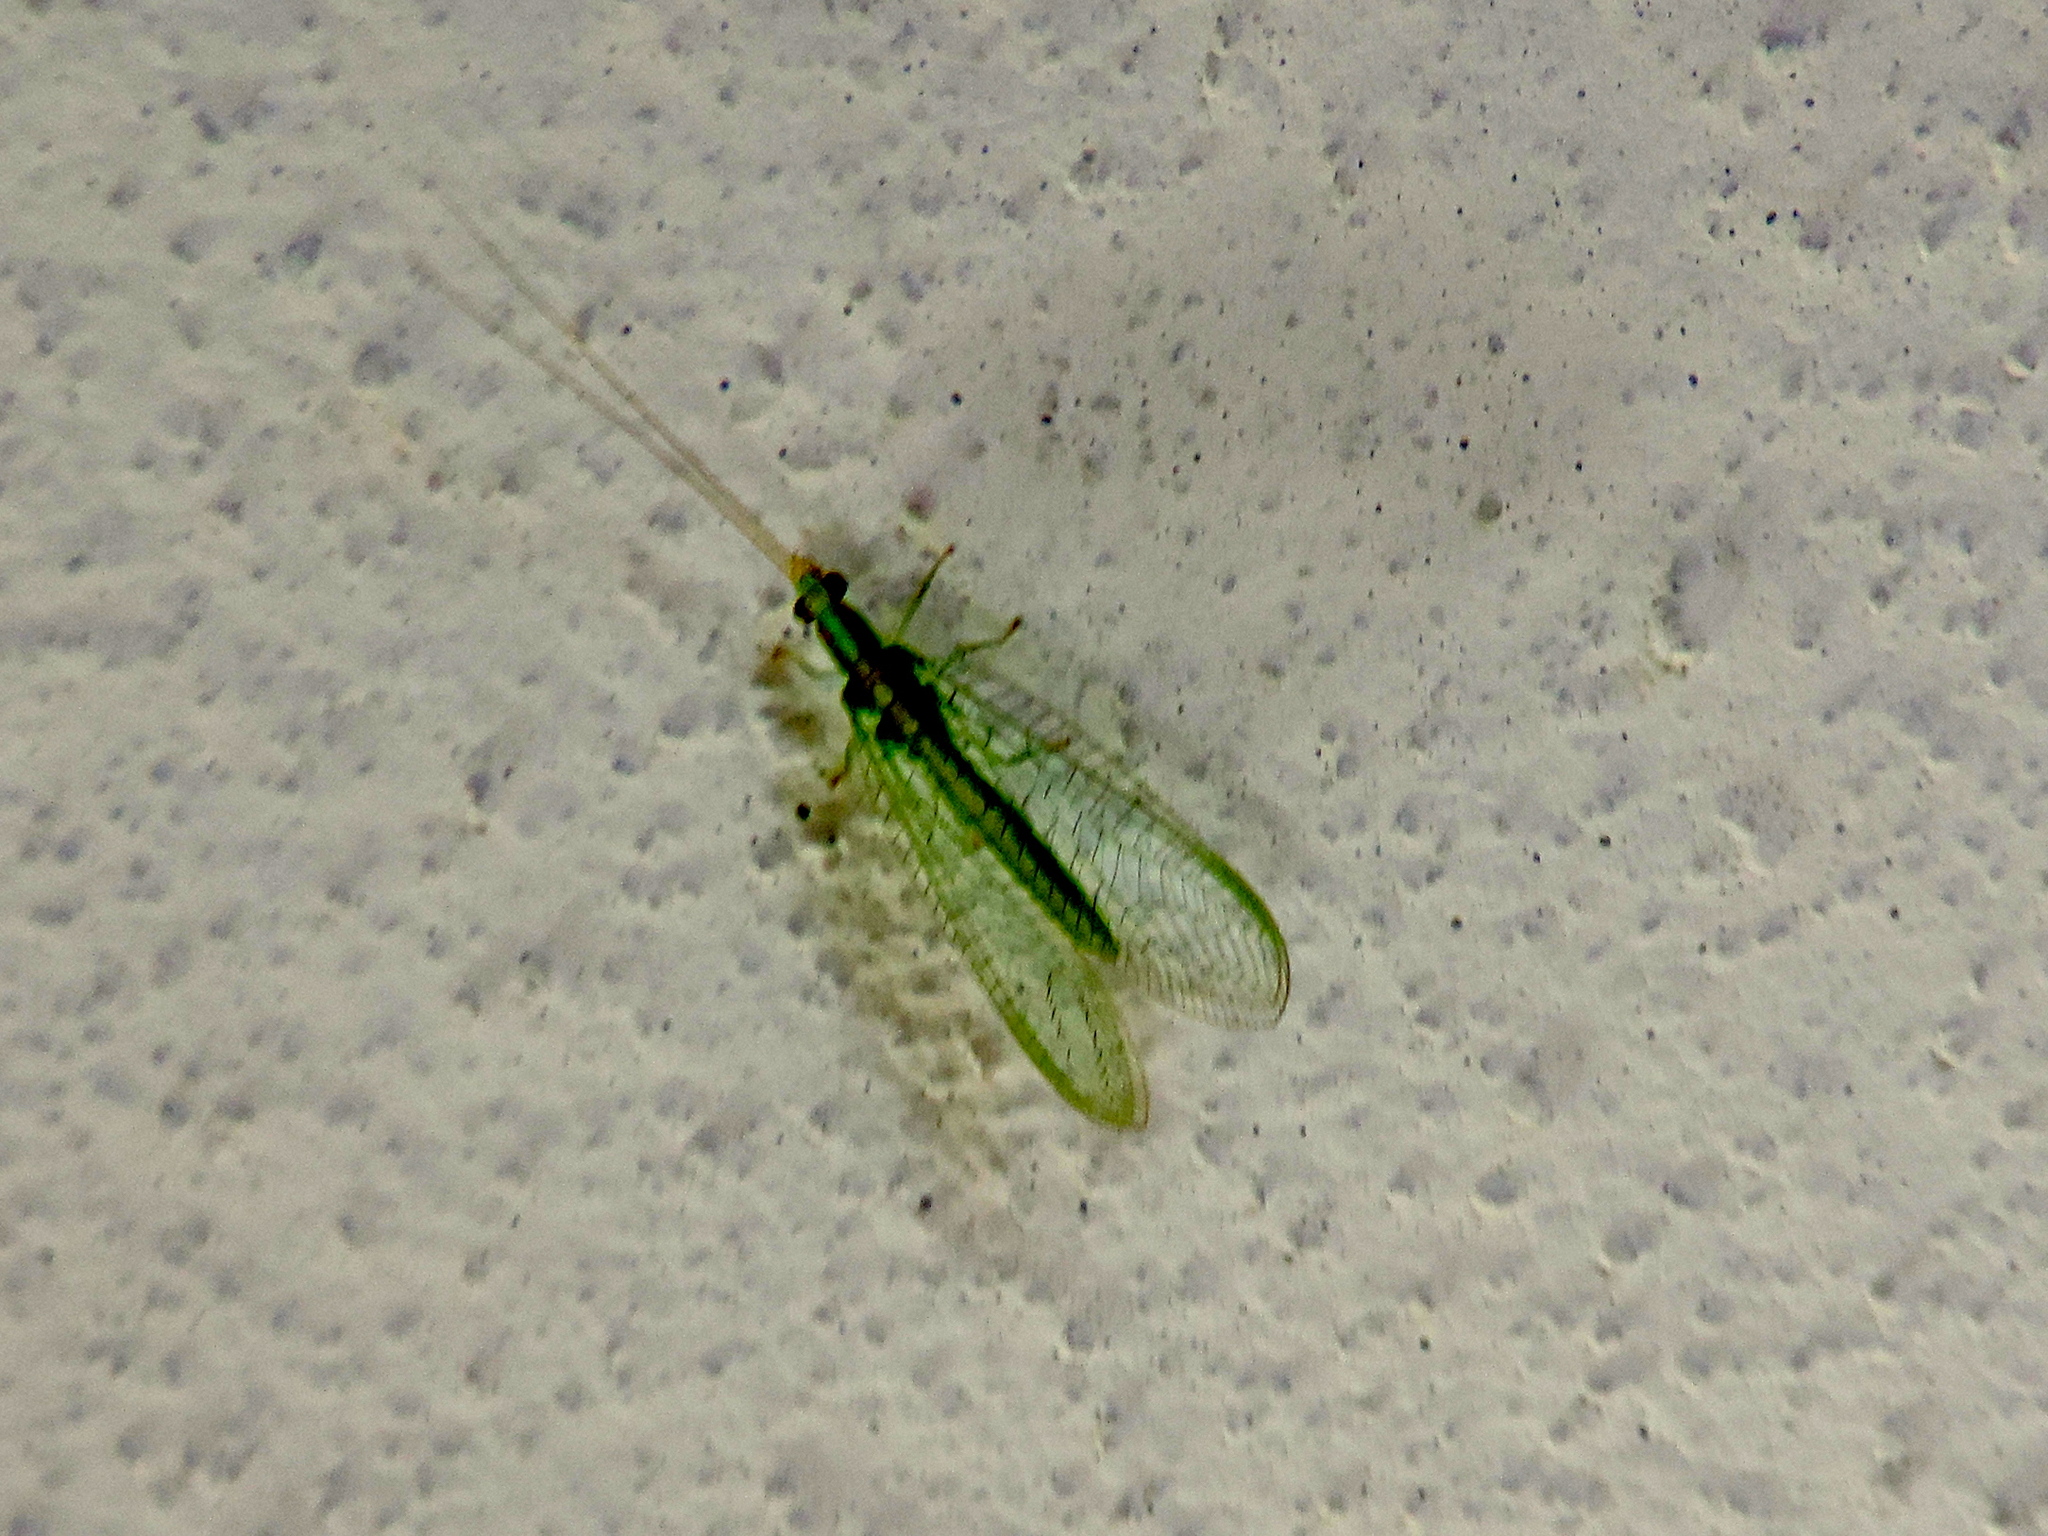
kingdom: Animalia
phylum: Arthropoda
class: Insecta
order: Neuroptera
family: Chrysopidae
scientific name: Chrysopidae
